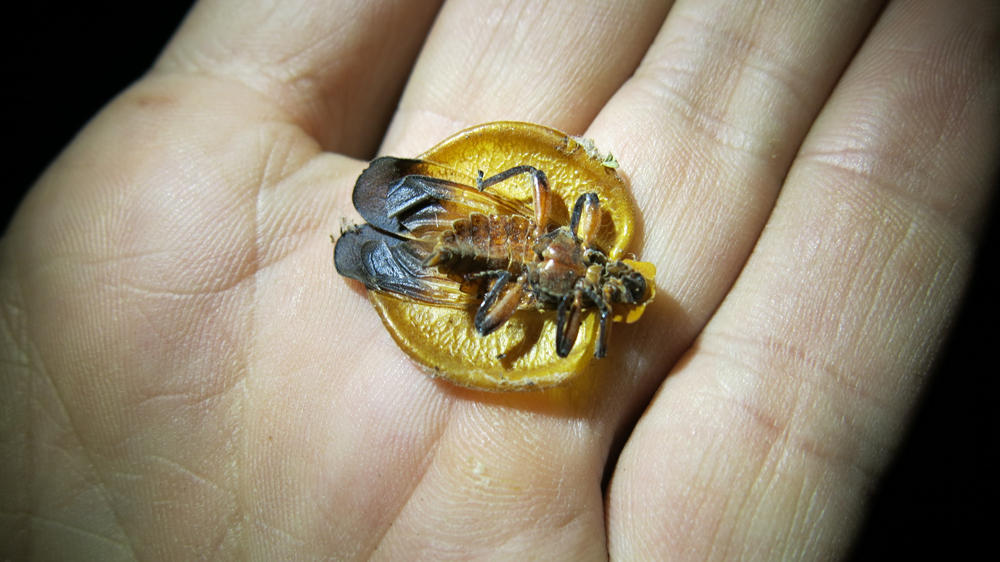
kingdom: Animalia
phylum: Arthropoda
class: Insecta
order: Coleoptera
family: Lycidae
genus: Lycus
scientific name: Lycus
